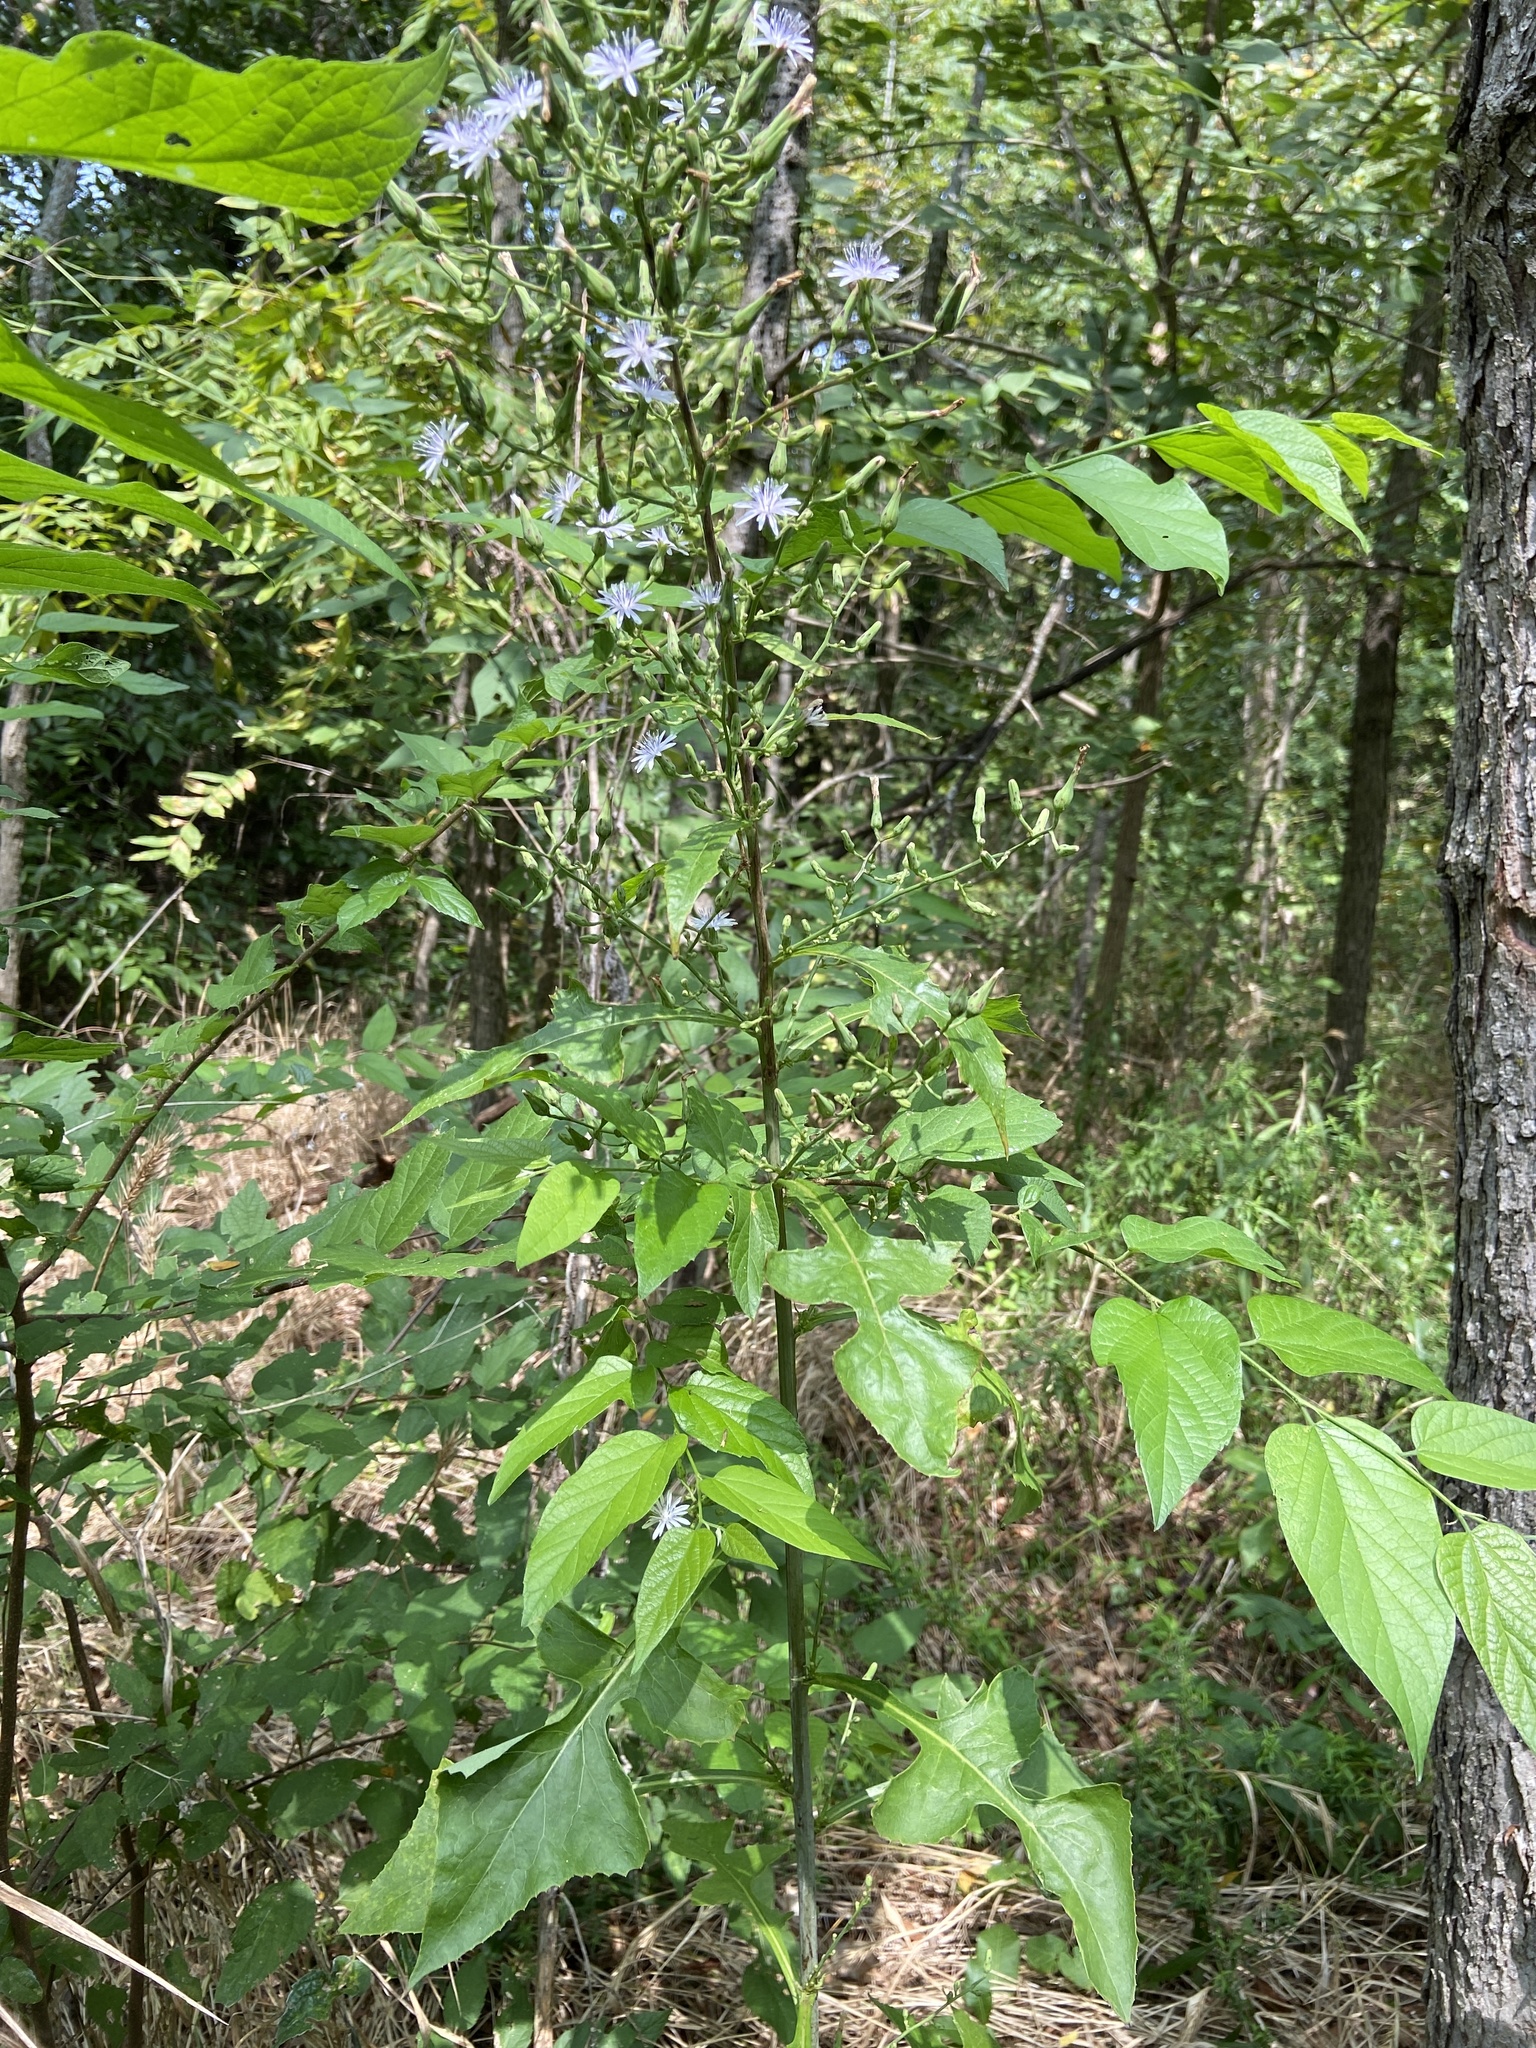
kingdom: Plantae
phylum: Tracheophyta
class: Magnoliopsida
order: Asterales
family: Asteraceae
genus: Lactuca
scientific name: Lactuca floridana
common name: Woodland lettuce
